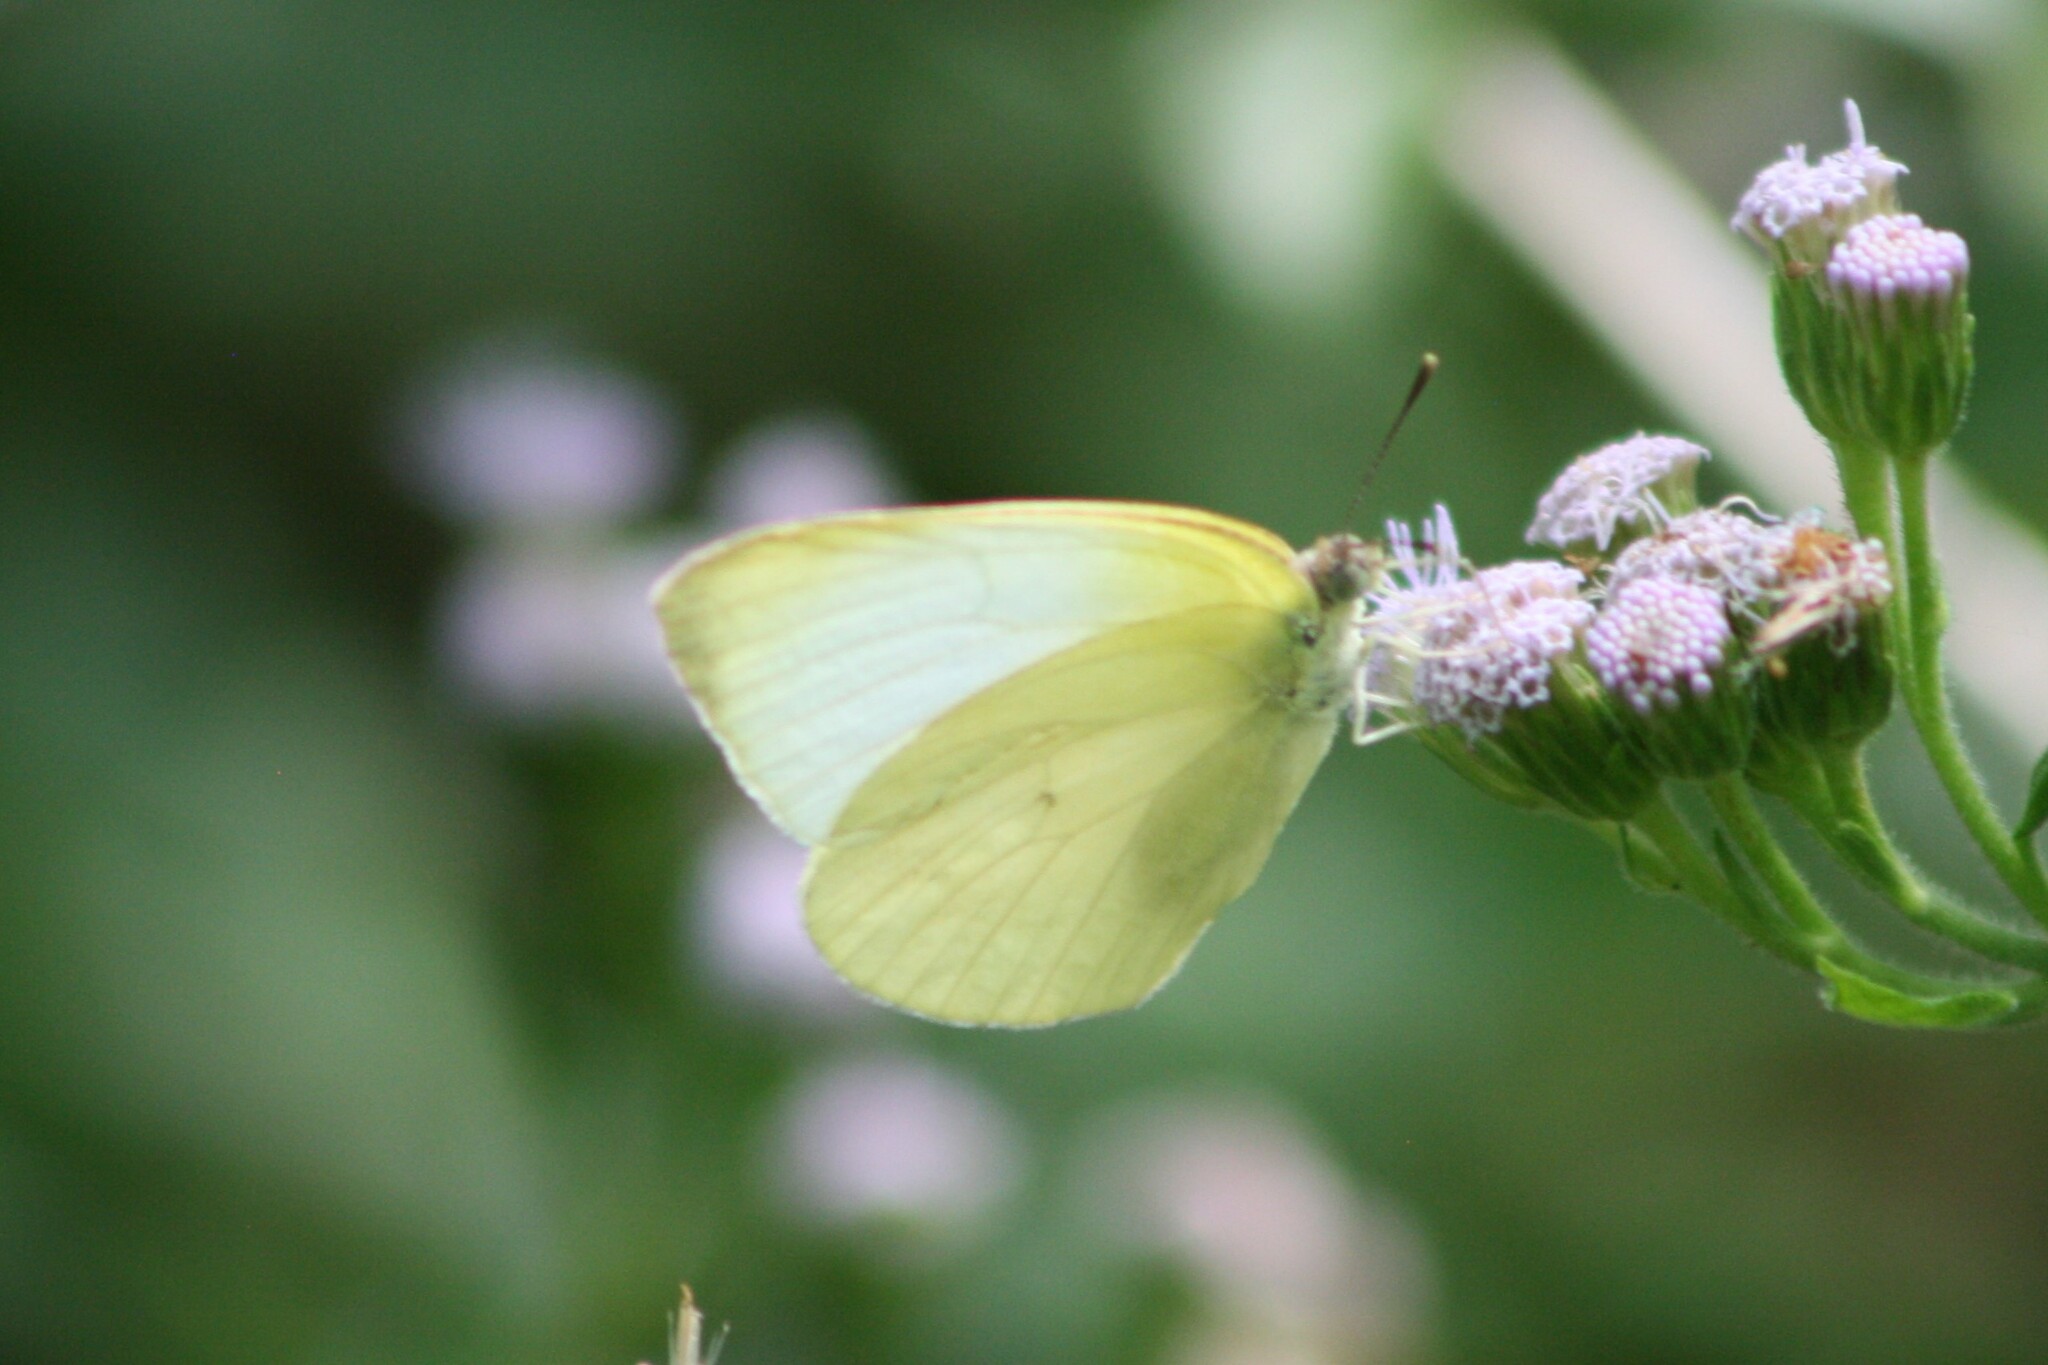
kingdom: Animalia
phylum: Arthropoda
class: Insecta
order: Lepidoptera
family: Pieridae
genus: Kricogonia
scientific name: Kricogonia lyside
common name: Guayacan sulphur,
